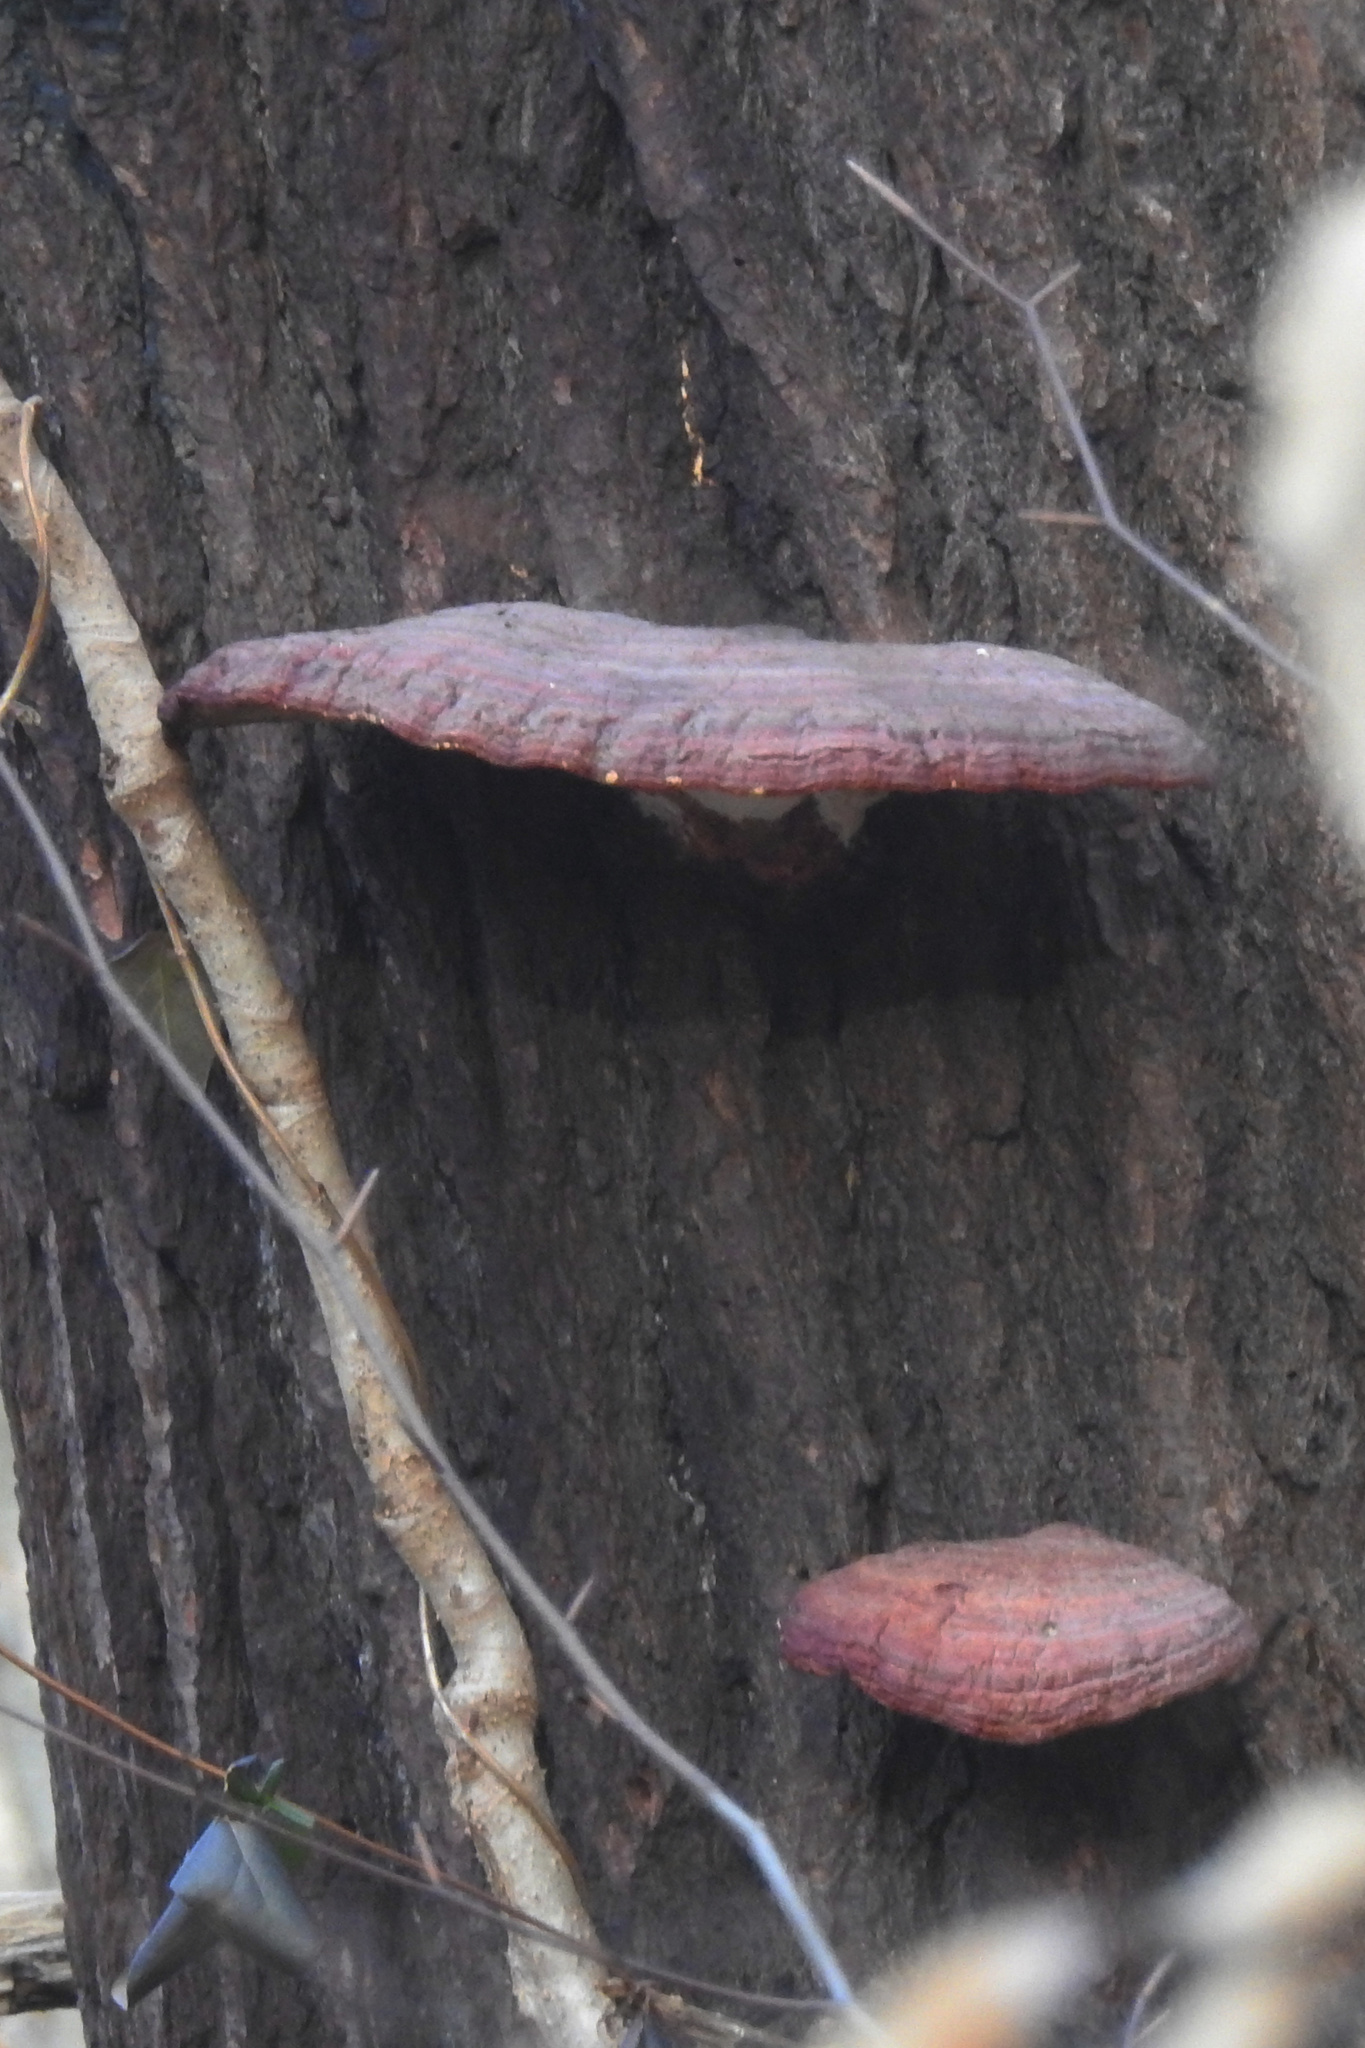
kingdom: Fungi
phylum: Basidiomycota
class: Agaricomycetes
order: Polyporales
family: Polyporaceae
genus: Ganoderma
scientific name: Ganoderma resinaceum
